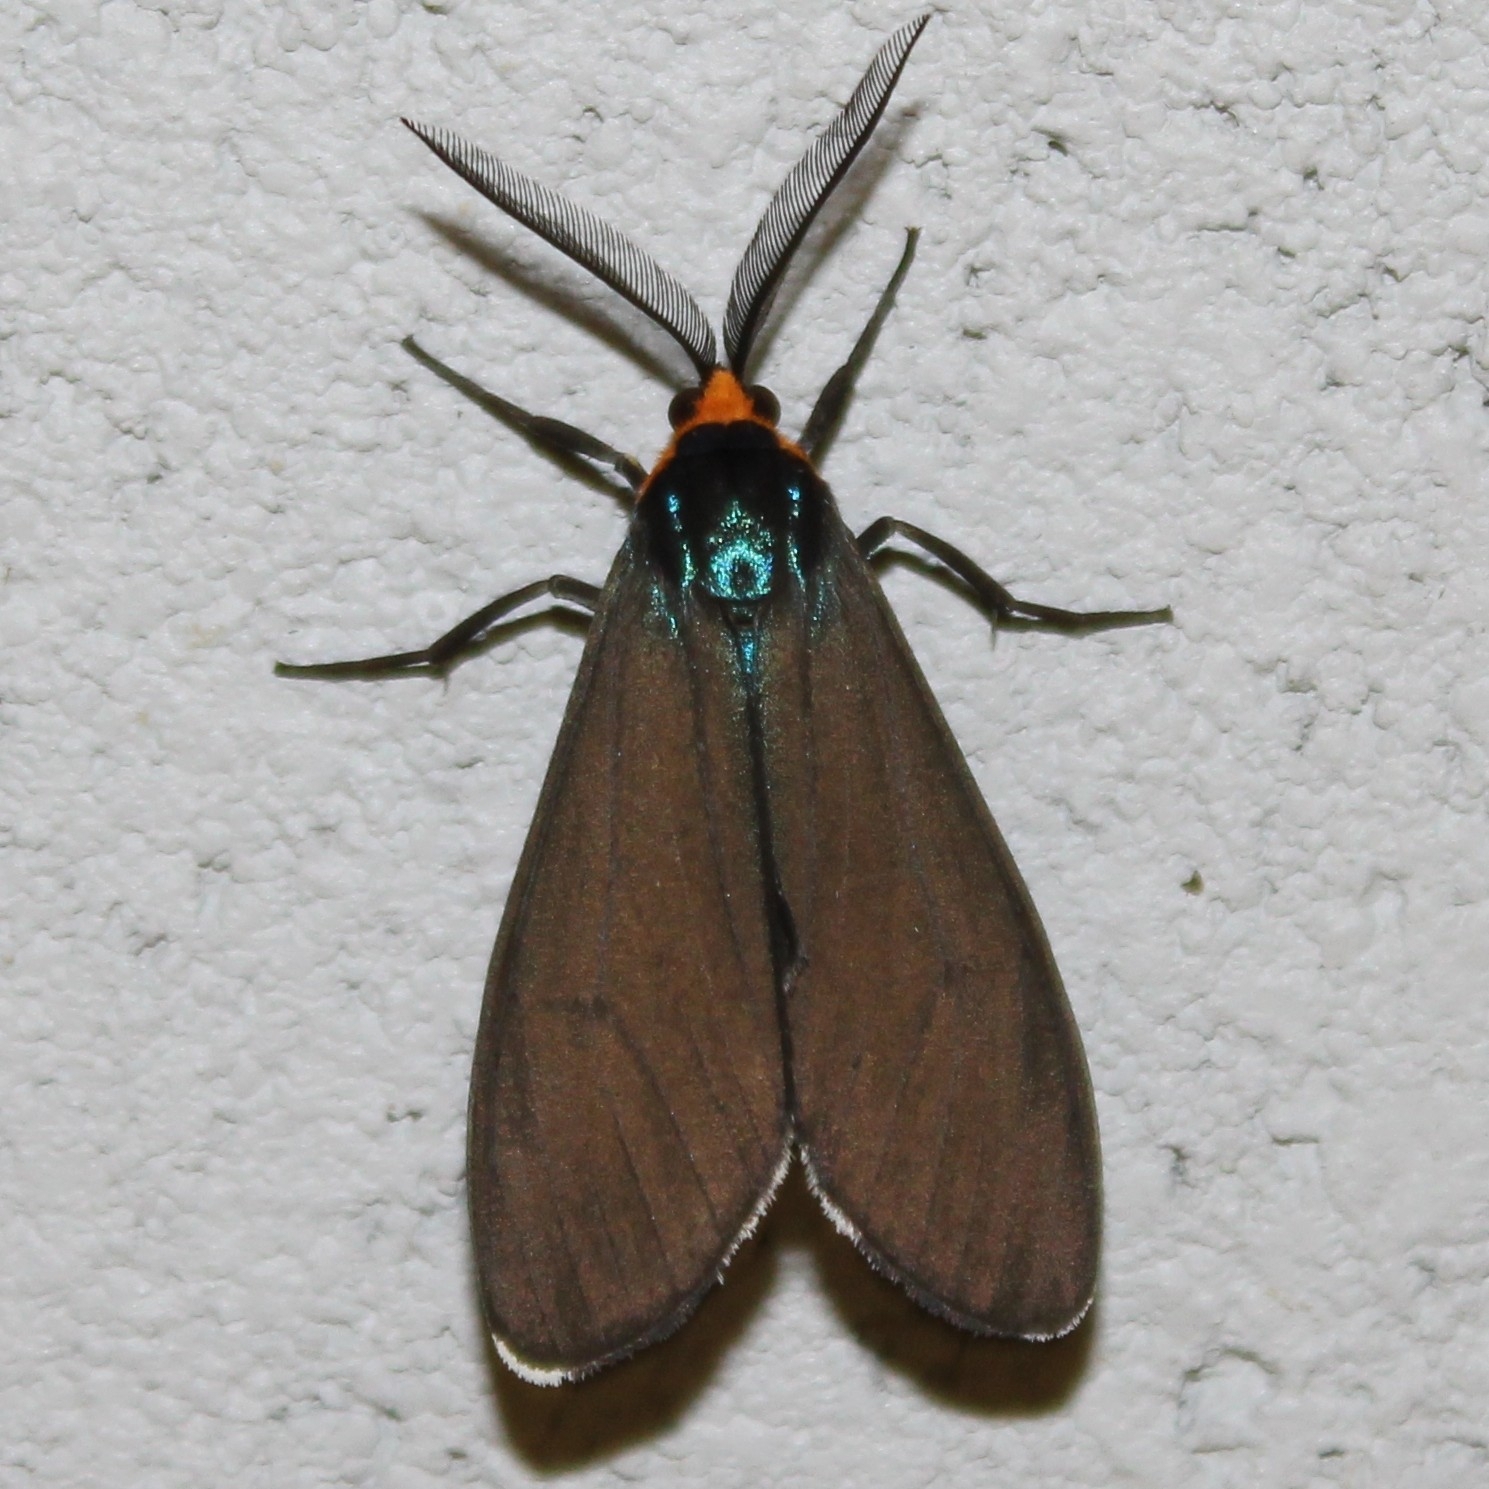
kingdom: Animalia
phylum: Arthropoda
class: Insecta
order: Lepidoptera
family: Erebidae
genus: Ctenucha
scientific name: Ctenucha virginica
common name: Virginia ctenucha moth
